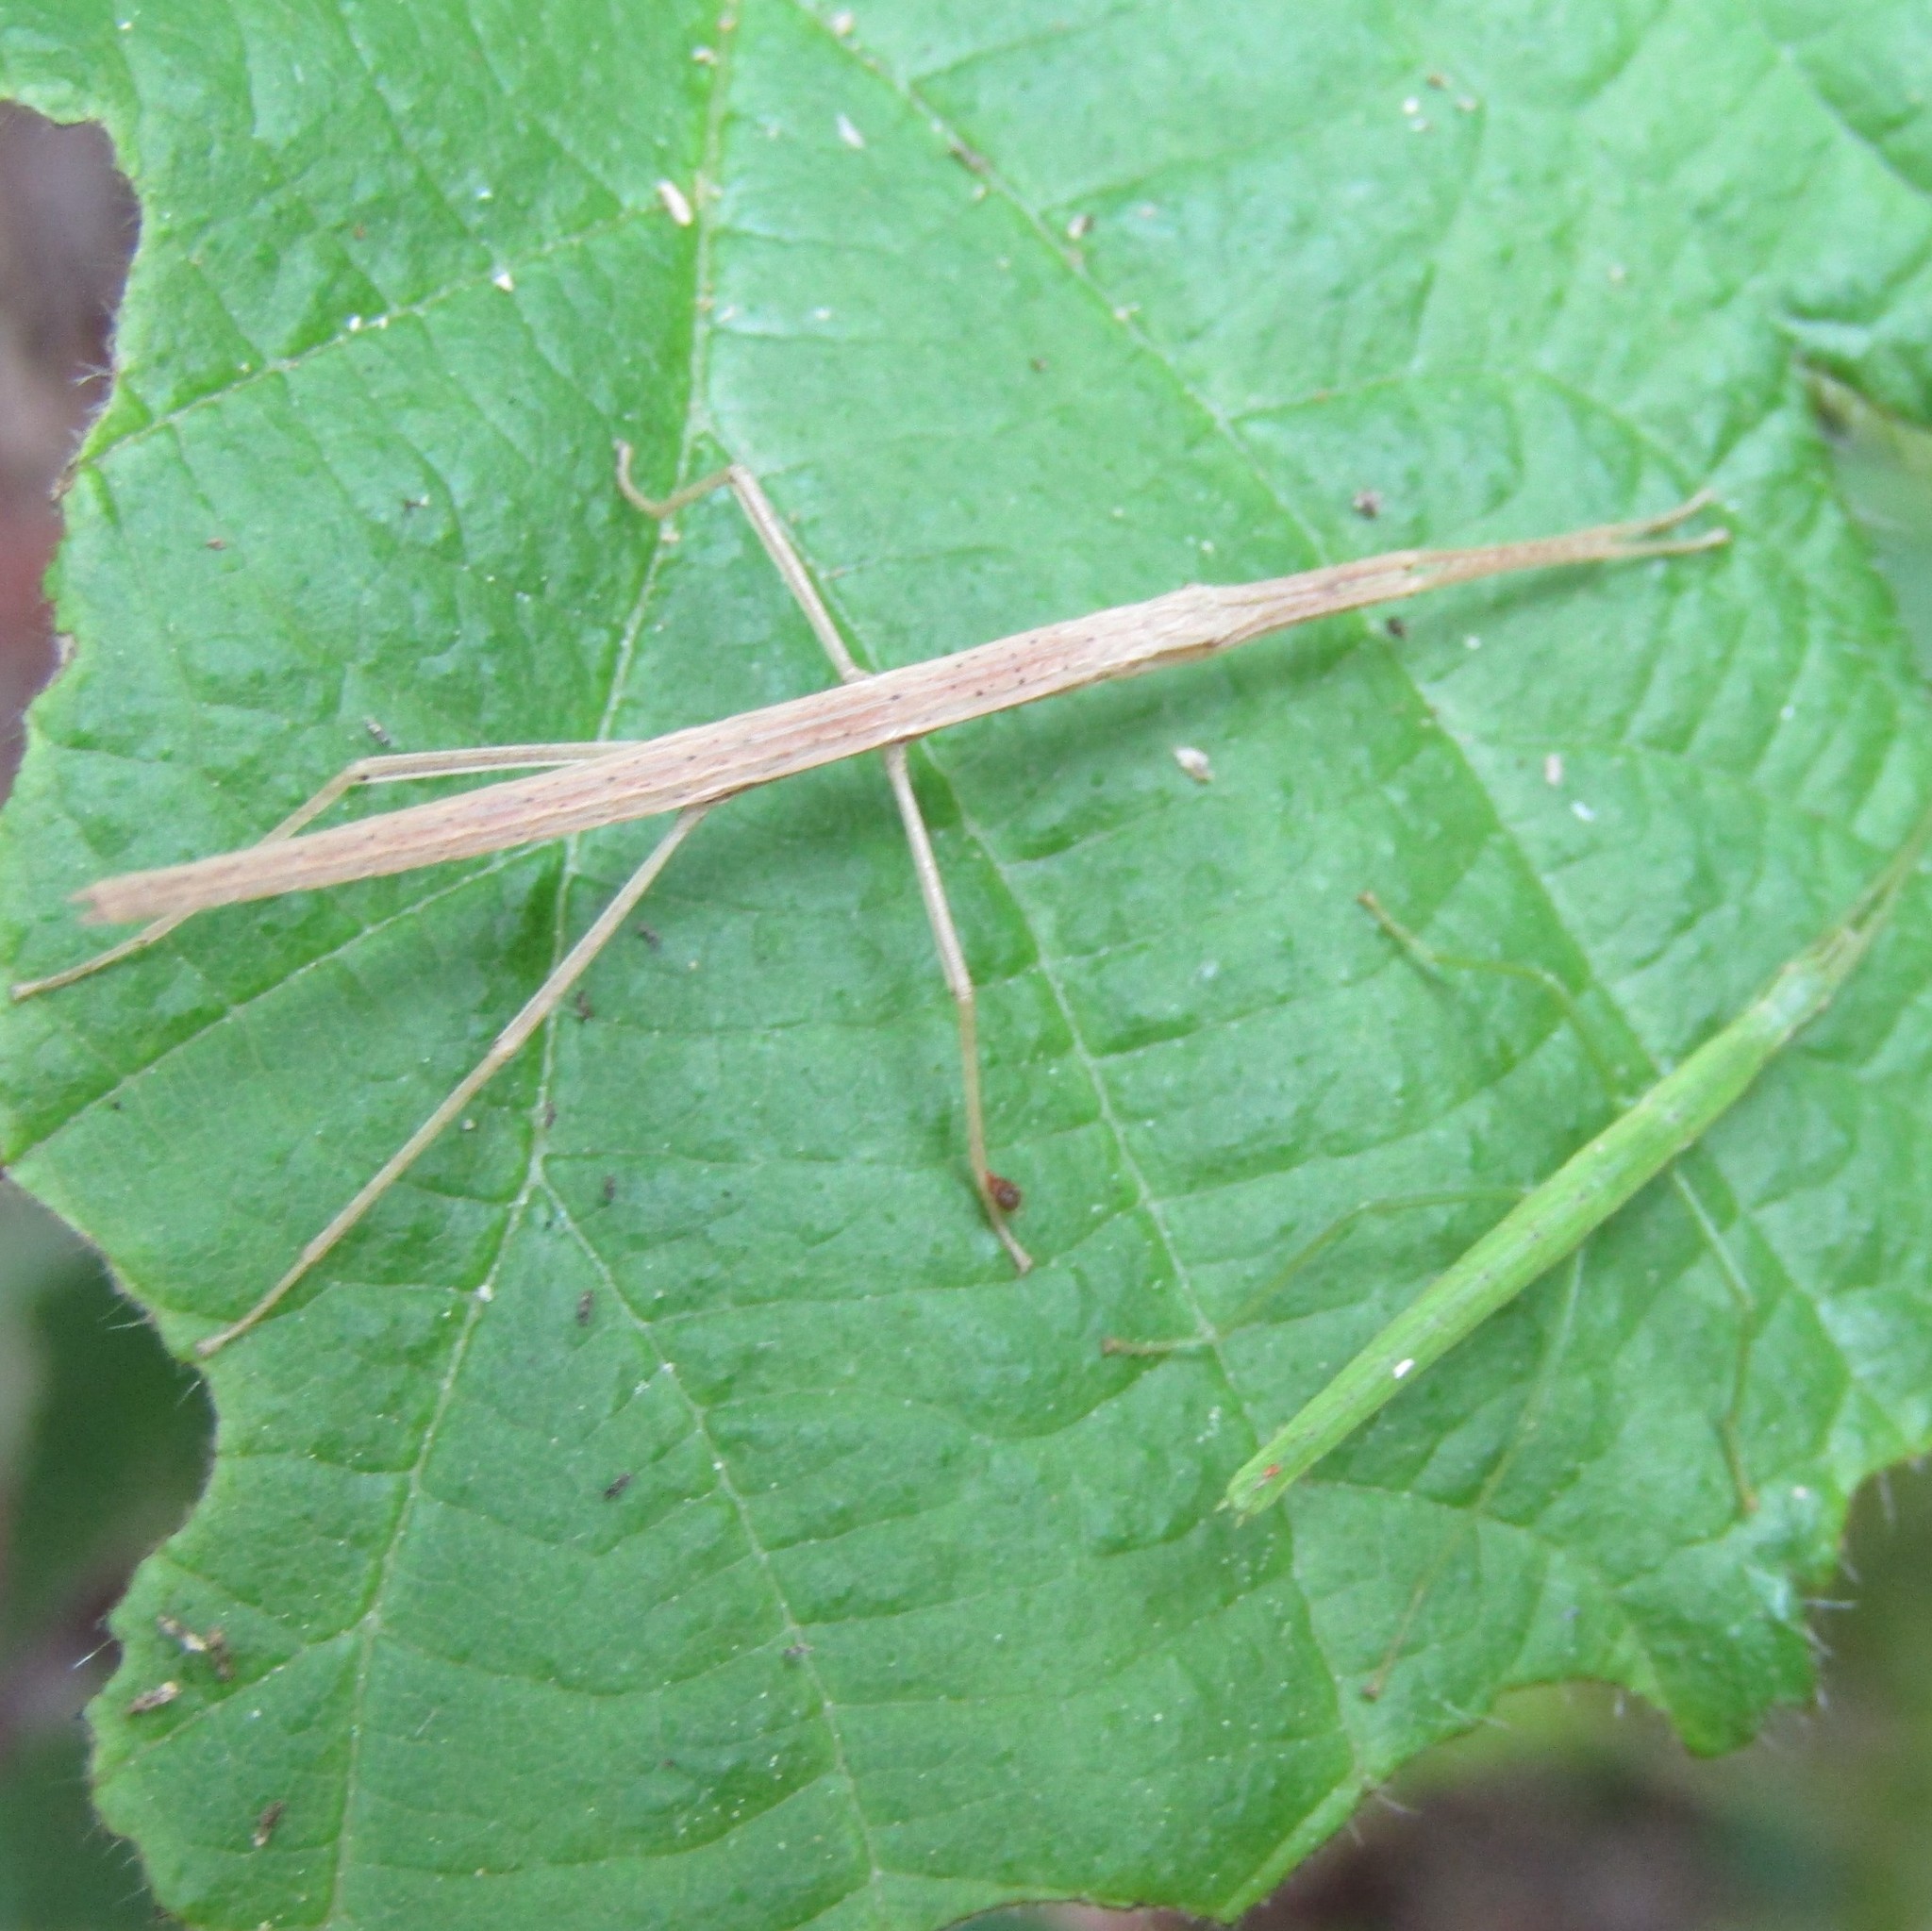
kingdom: Animalia
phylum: Arthropoda
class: Insecta
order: Phasmida
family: Phasmatidae
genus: Tectarchus
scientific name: Tectarchus huttoni
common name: The common ridge-backed stick insect
